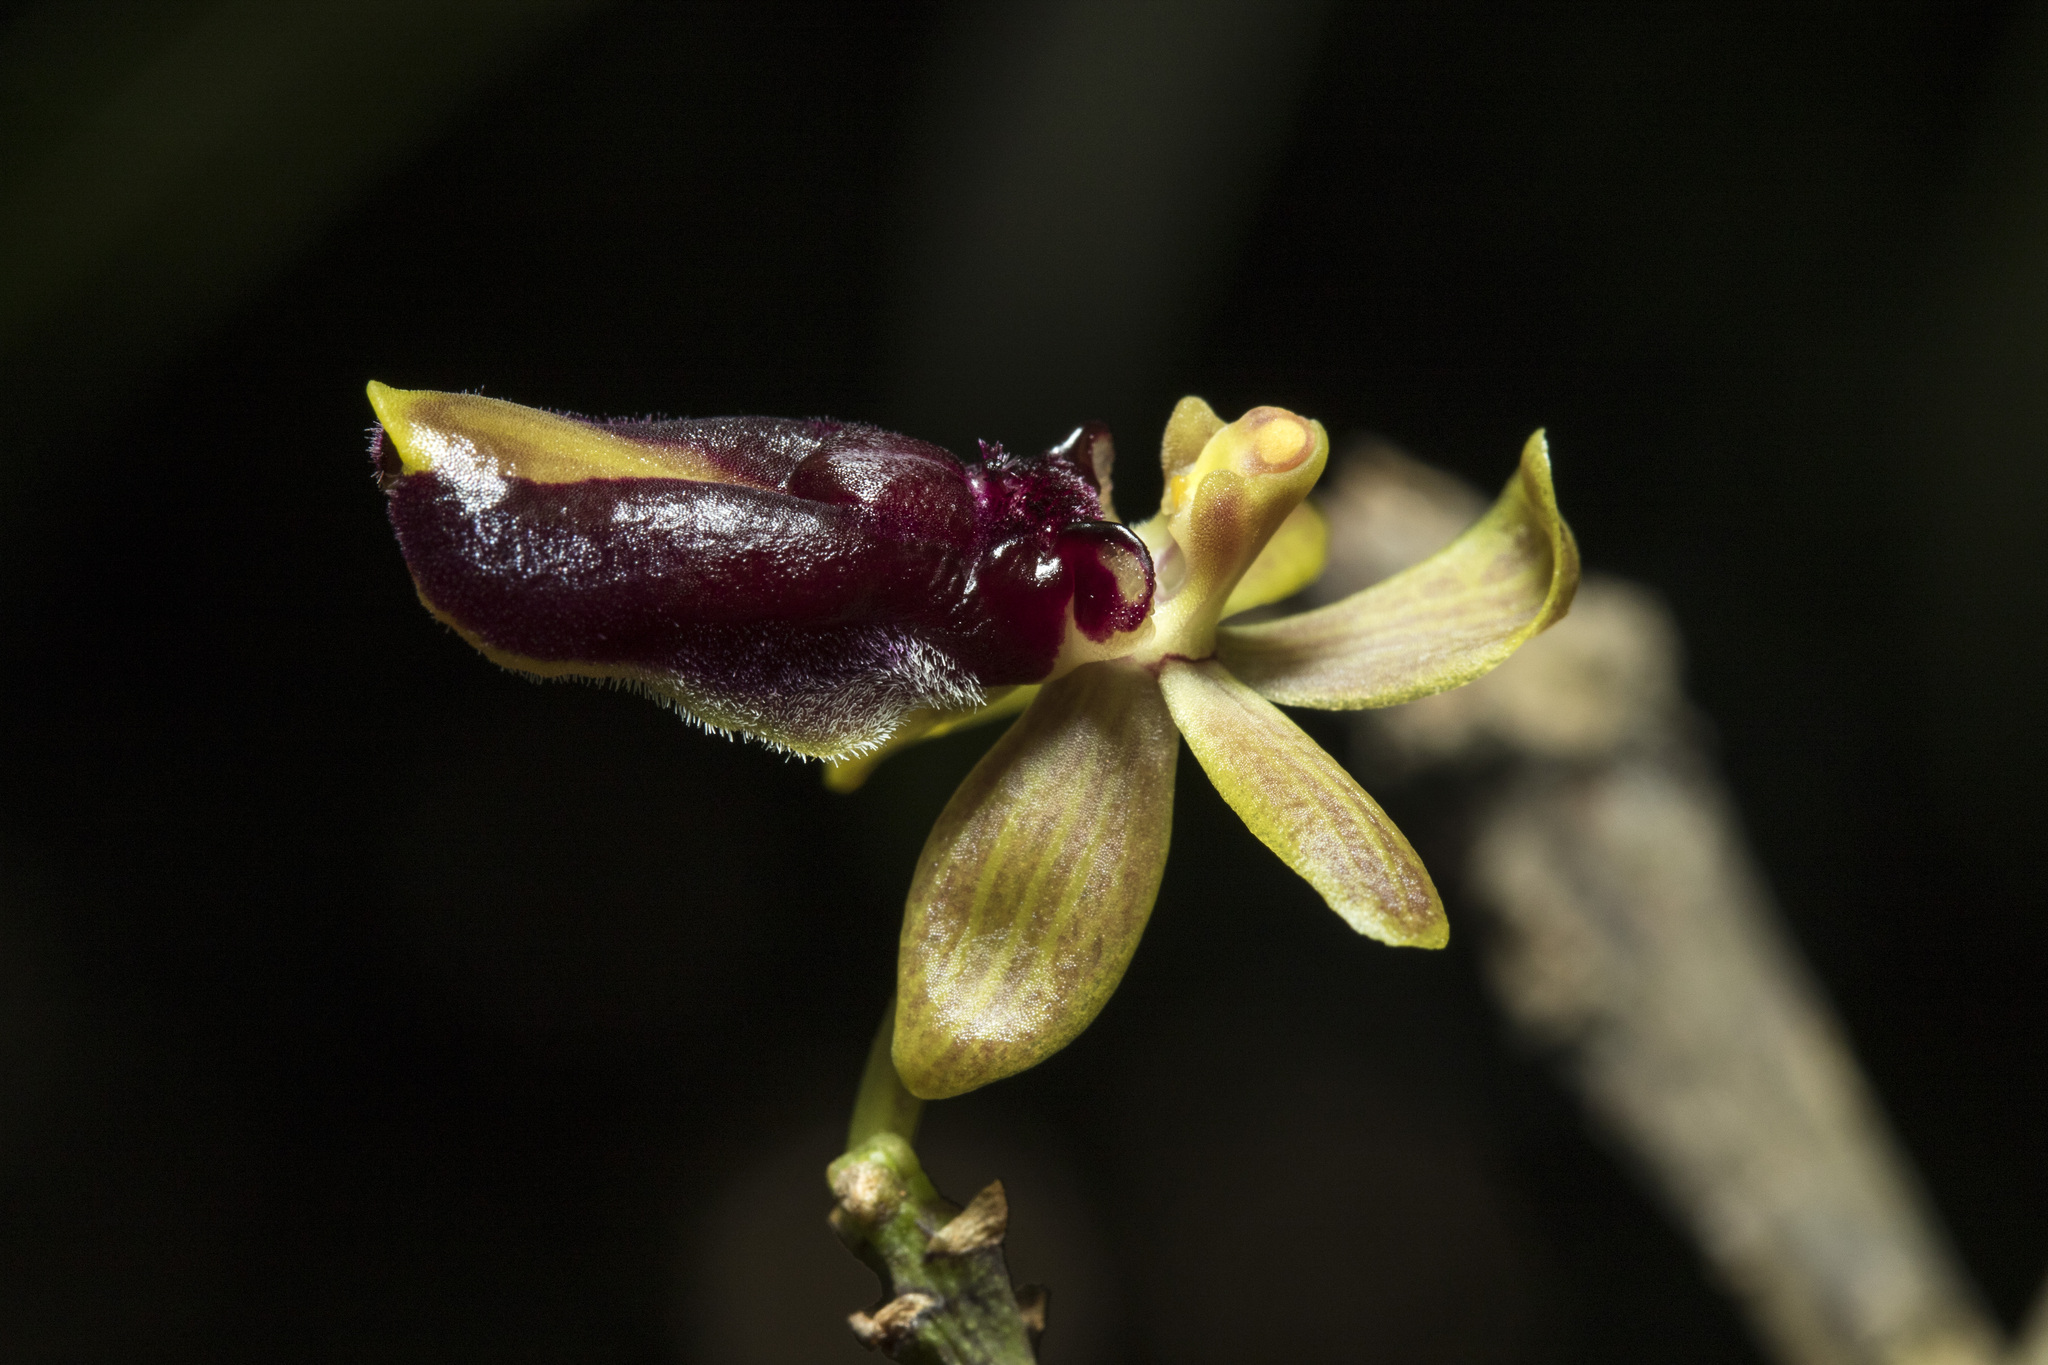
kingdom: Plantae
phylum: Tracheophyta
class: Liliopsida
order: Asparagales
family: Orchidaceae
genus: Cottonia
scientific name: Cottonia peduncularis
